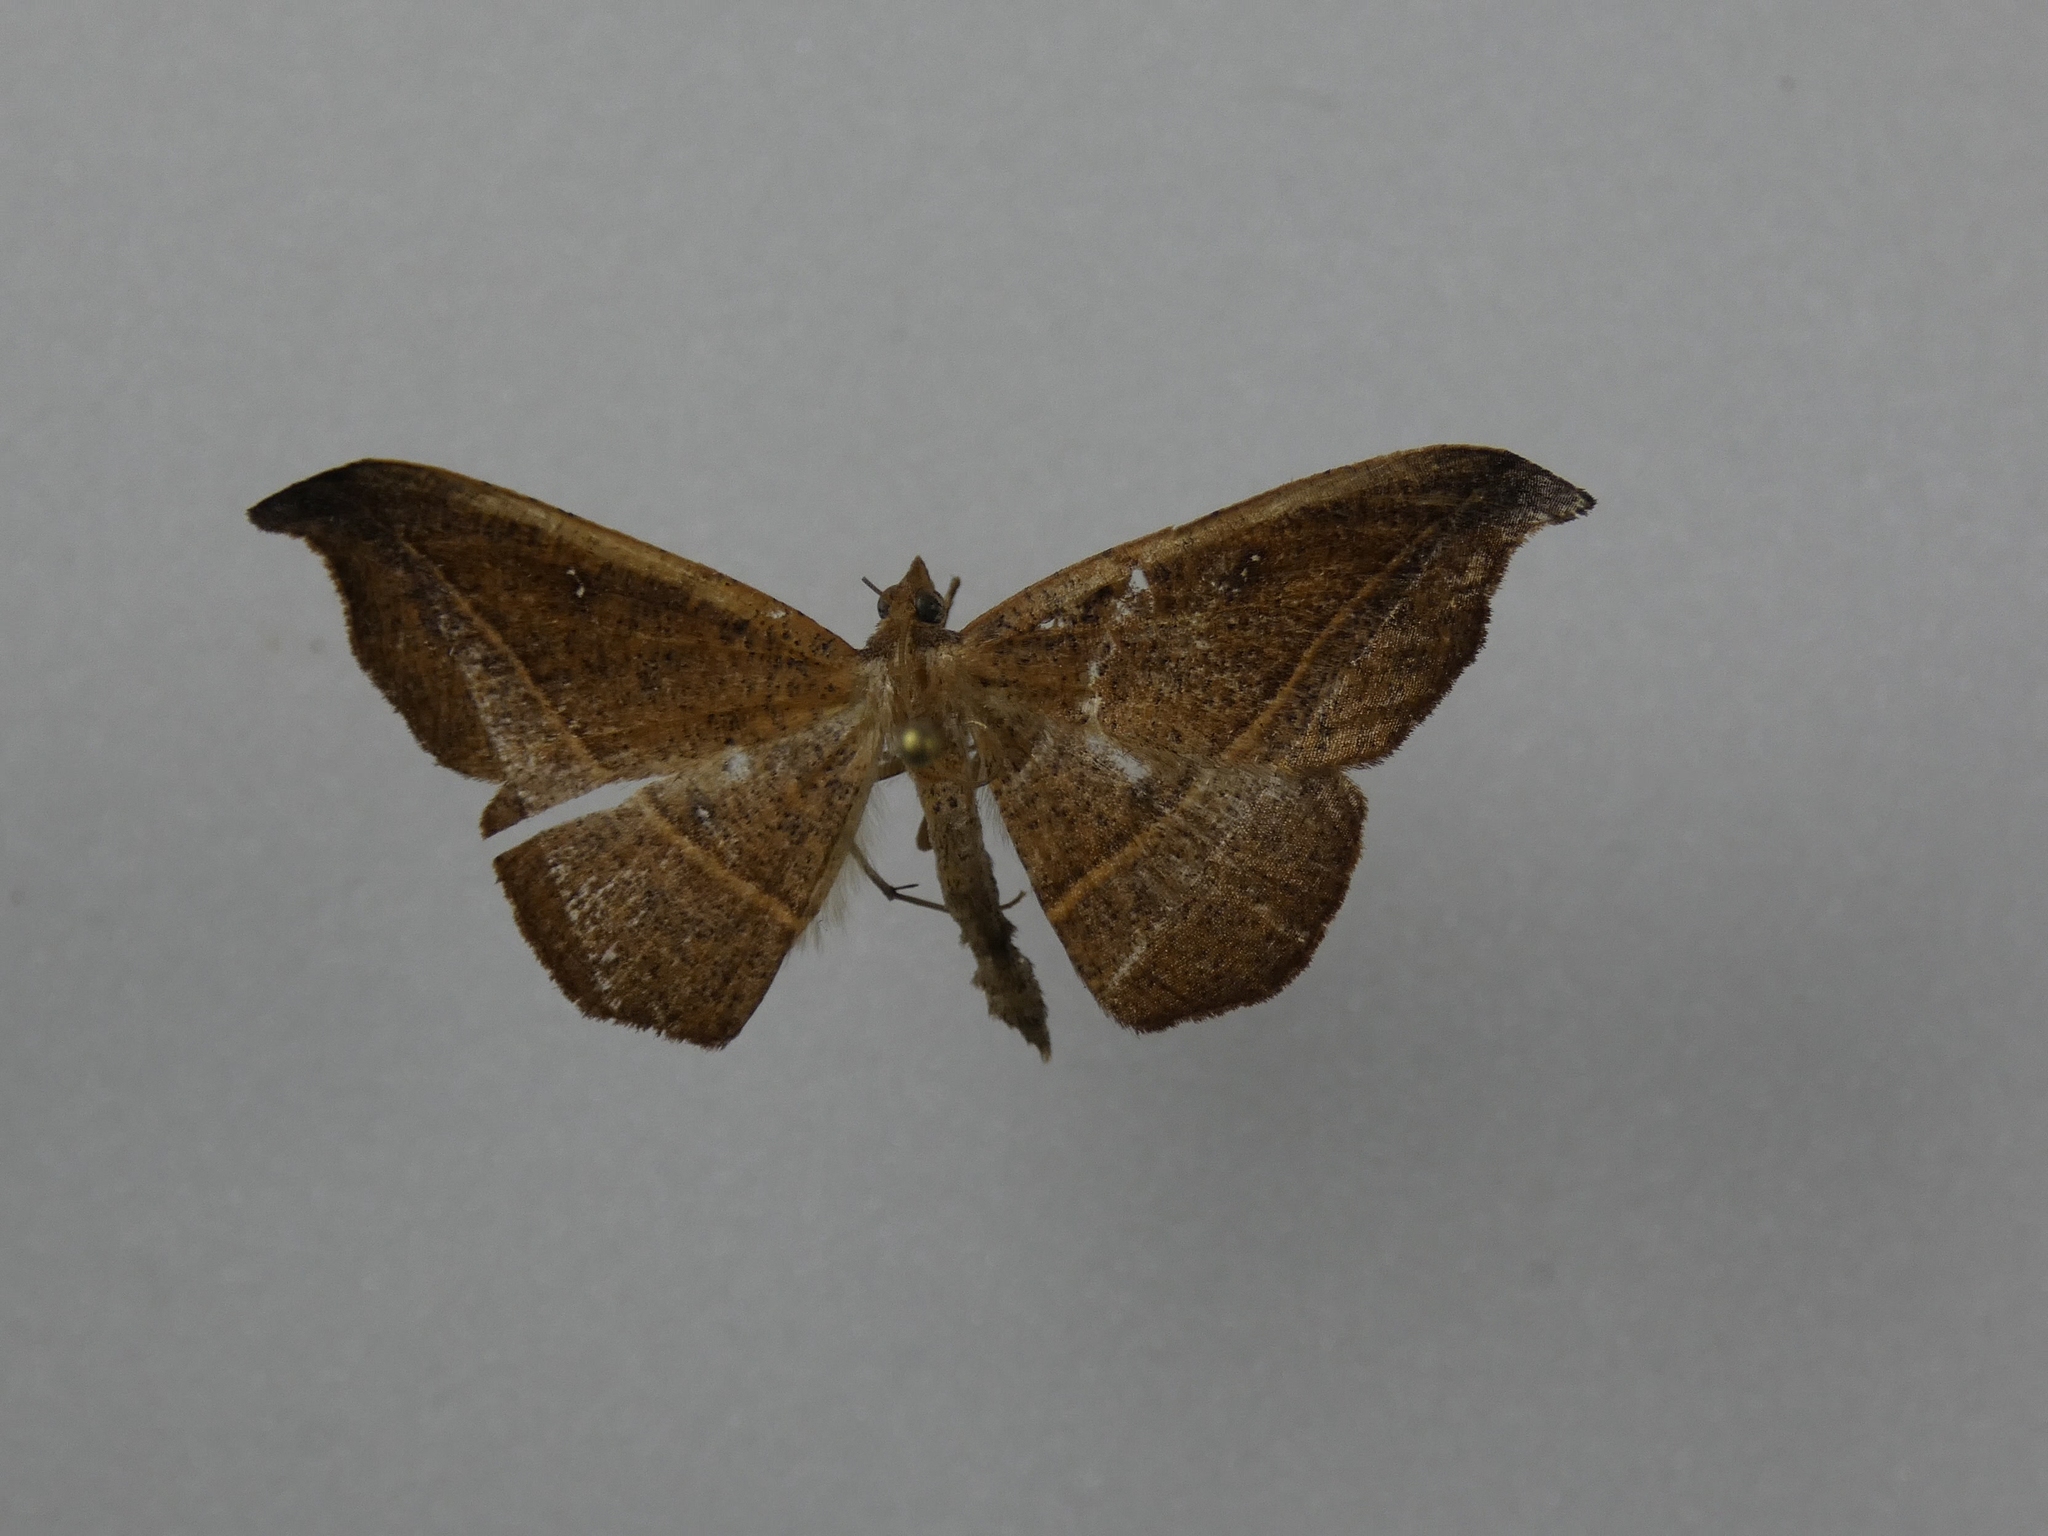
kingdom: Animalia
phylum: Arthropoda
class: Insecta
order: Lepidoptera
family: Geometridae
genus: Sarisa
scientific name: Sarisa muriferata
